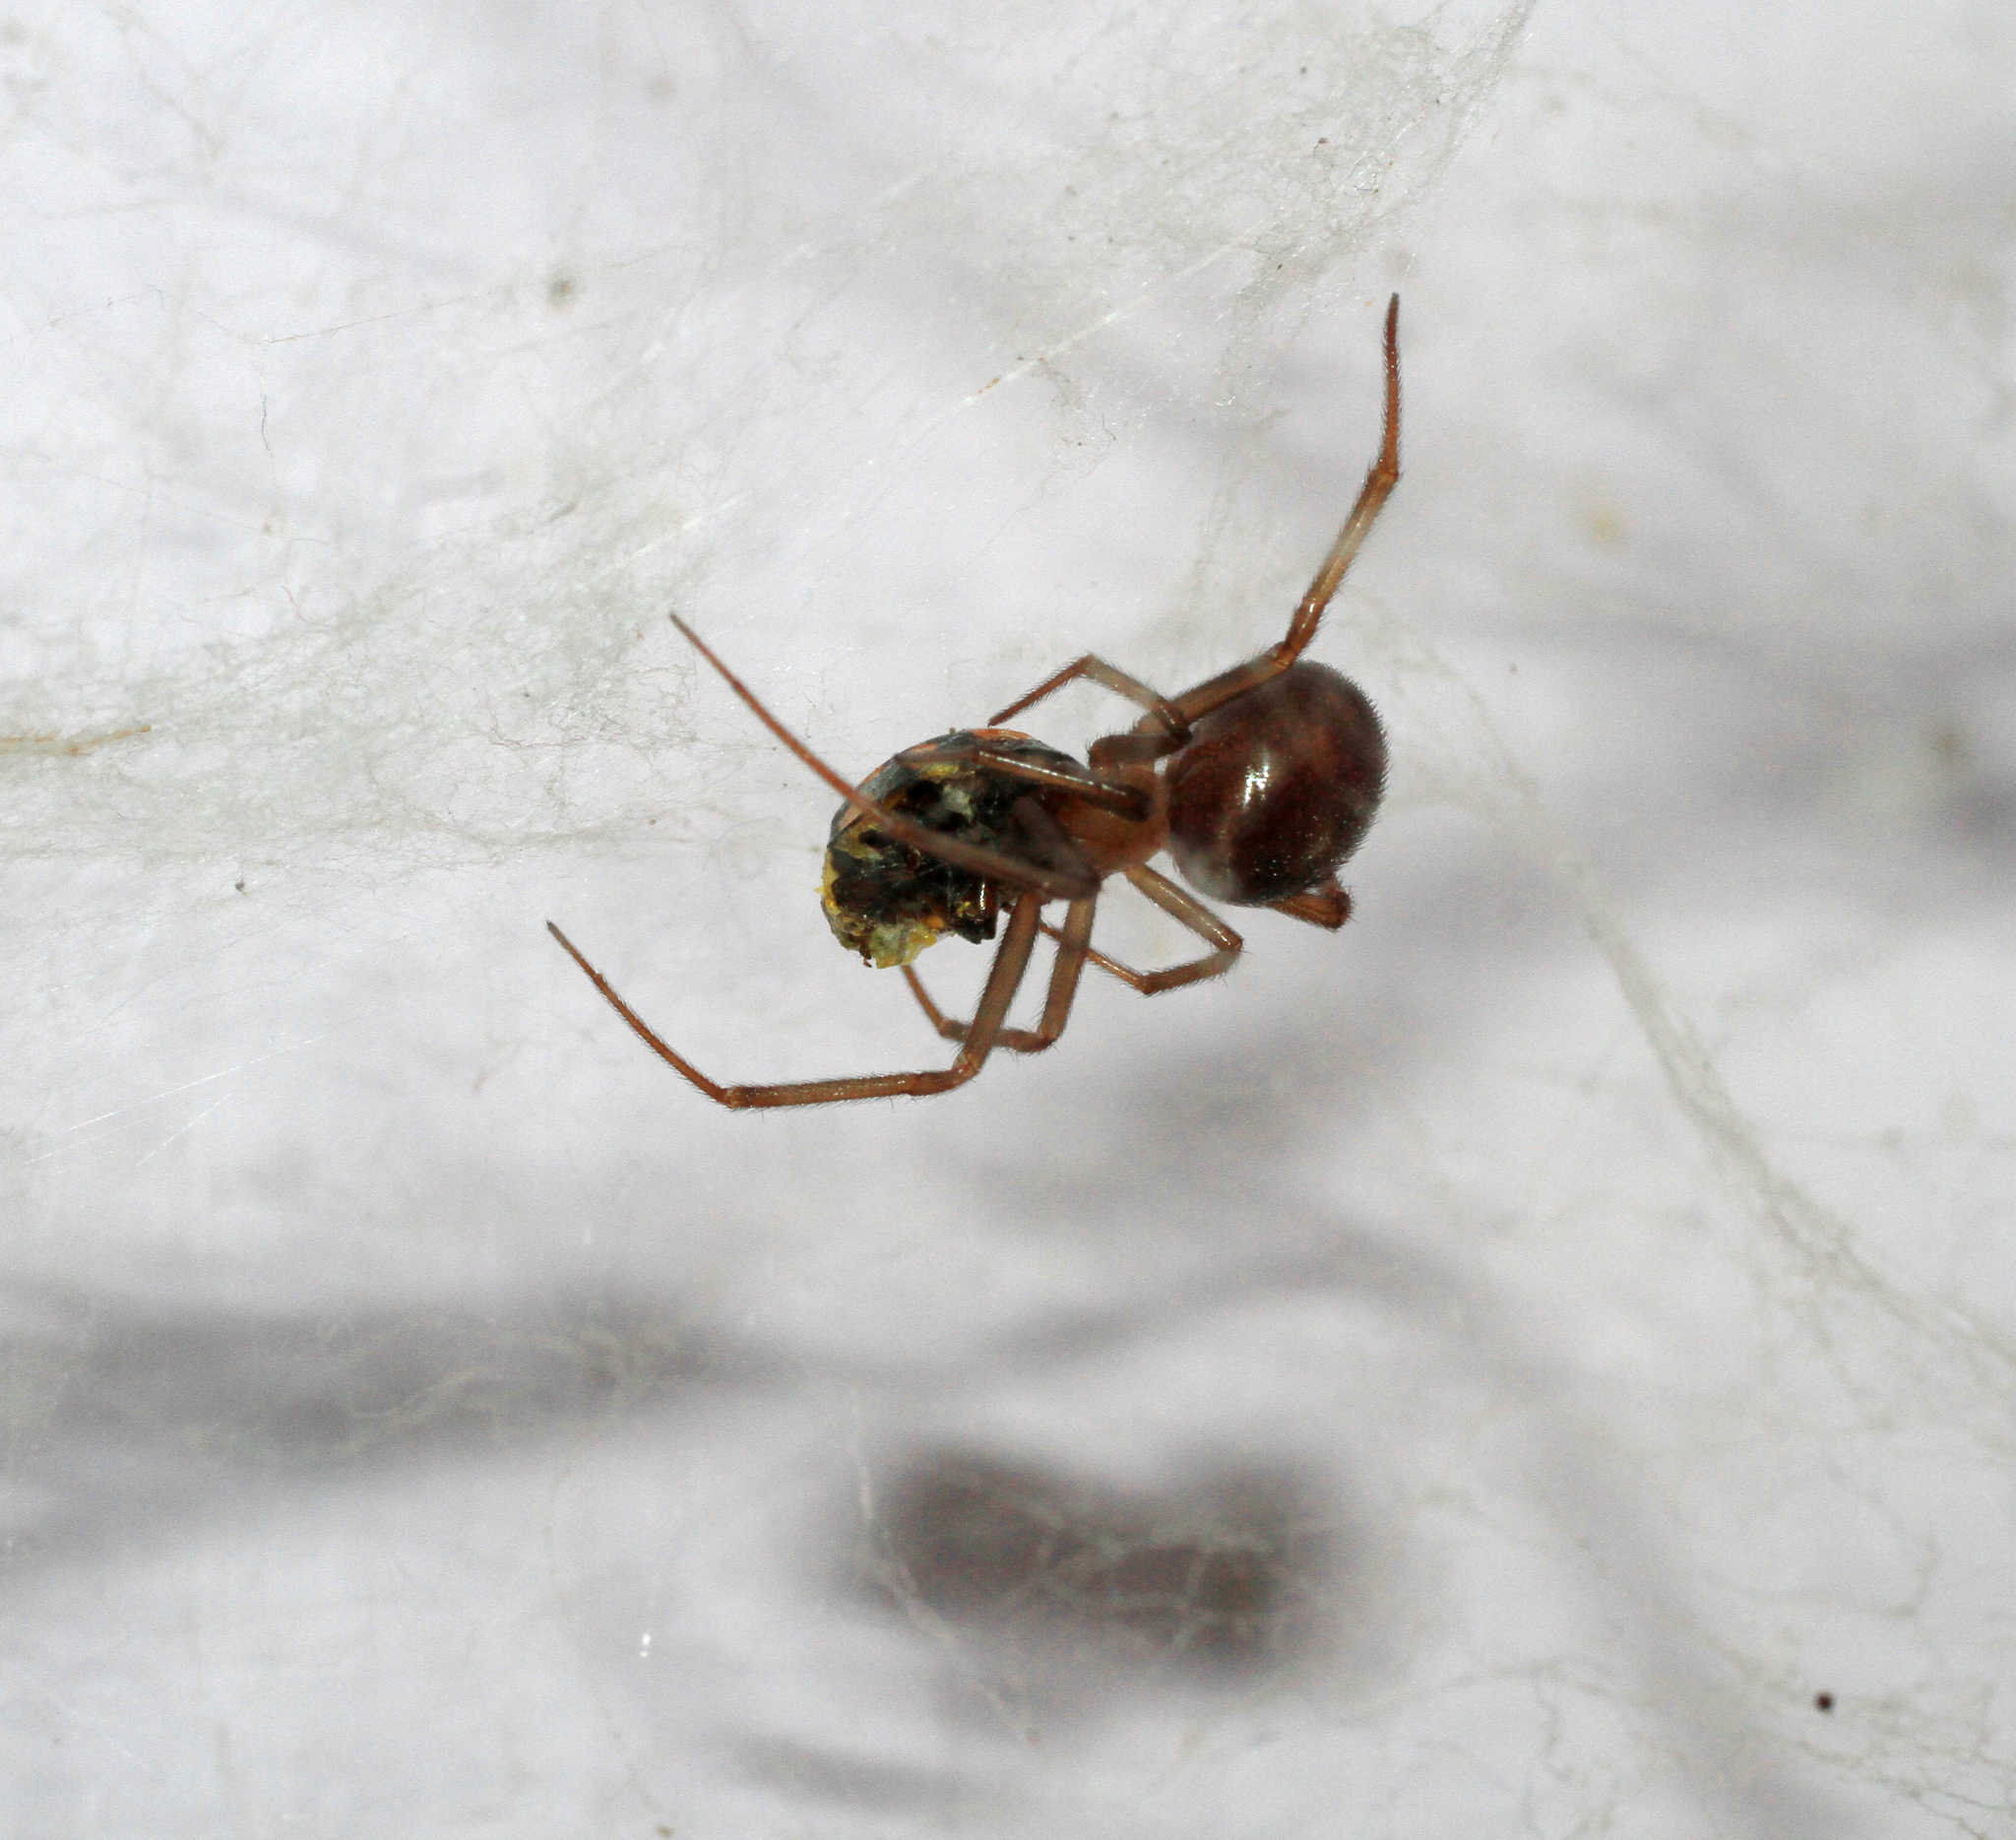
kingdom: Animalia
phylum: Arthropoda
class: Arachnida
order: Araneae
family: Theridiidae
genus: Steatoda
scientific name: Steatoda grossa
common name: False black widow
